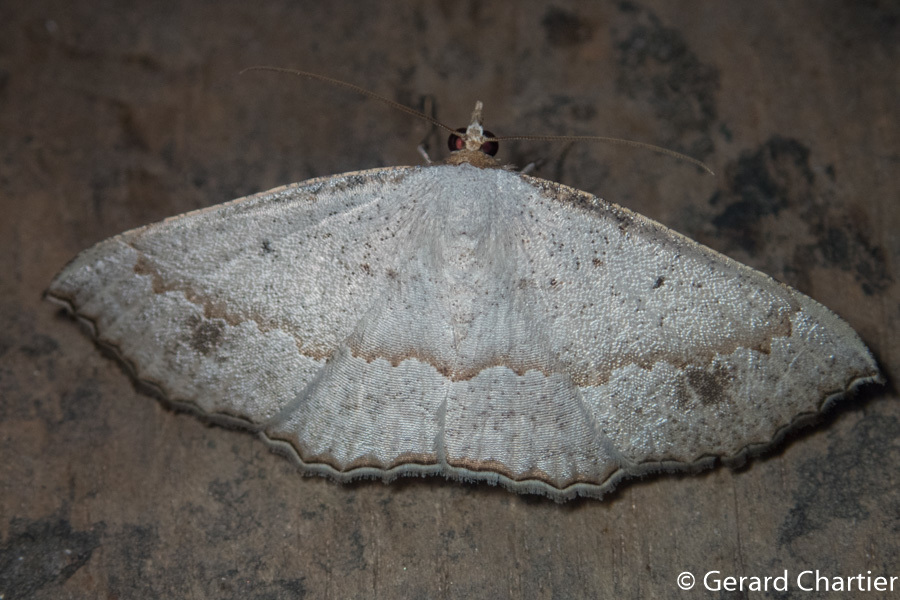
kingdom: Animalia
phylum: Arthropoda
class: Insecta
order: Lepidoptera
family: Geometridae
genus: Nadagara
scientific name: Nadagara intractata
